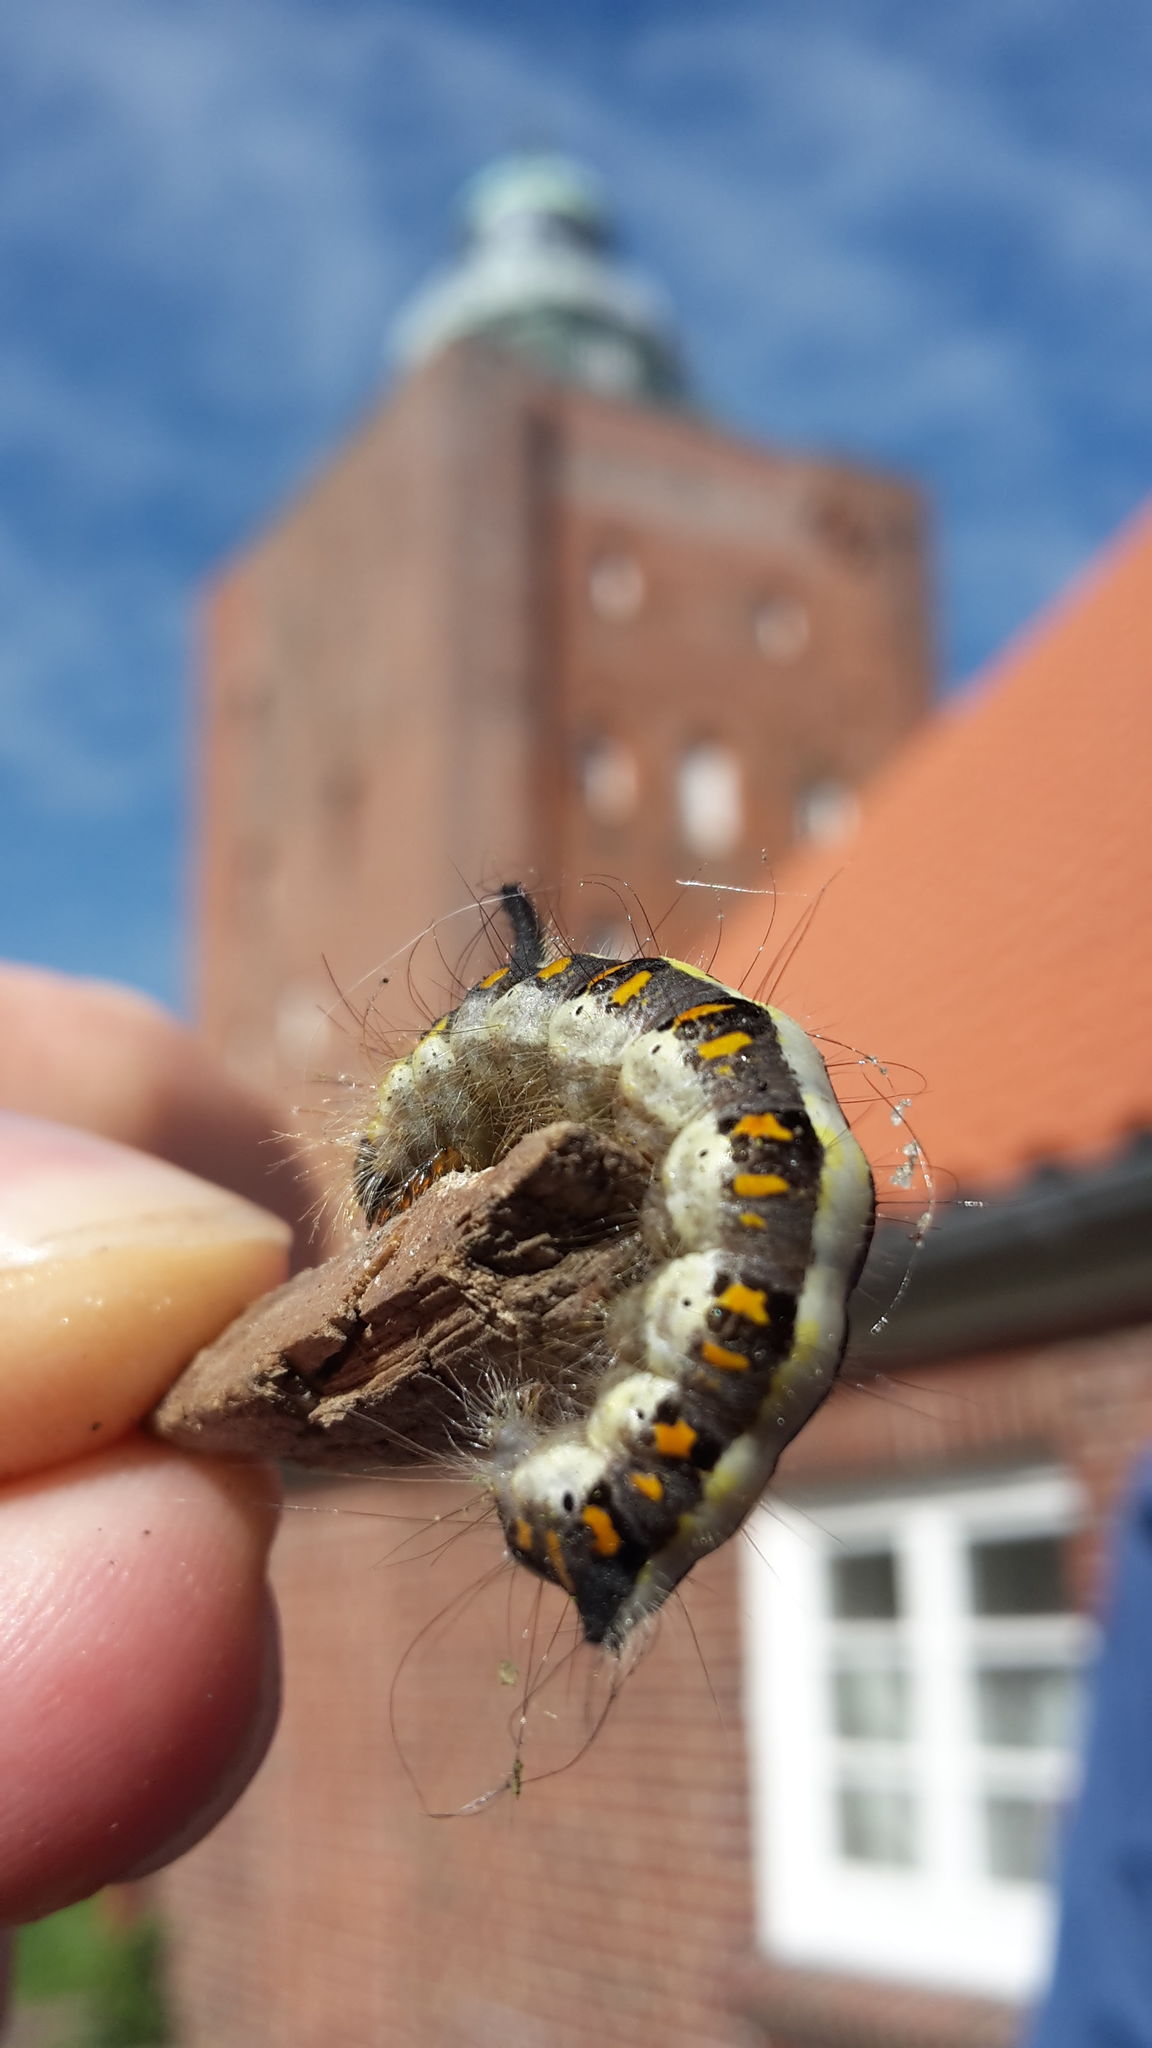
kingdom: Animalia
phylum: Arthropoda
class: Insecta
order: Lepidoptera
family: Noctuidae
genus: Acronicta
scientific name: Acronicta psi
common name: Grey dagger
